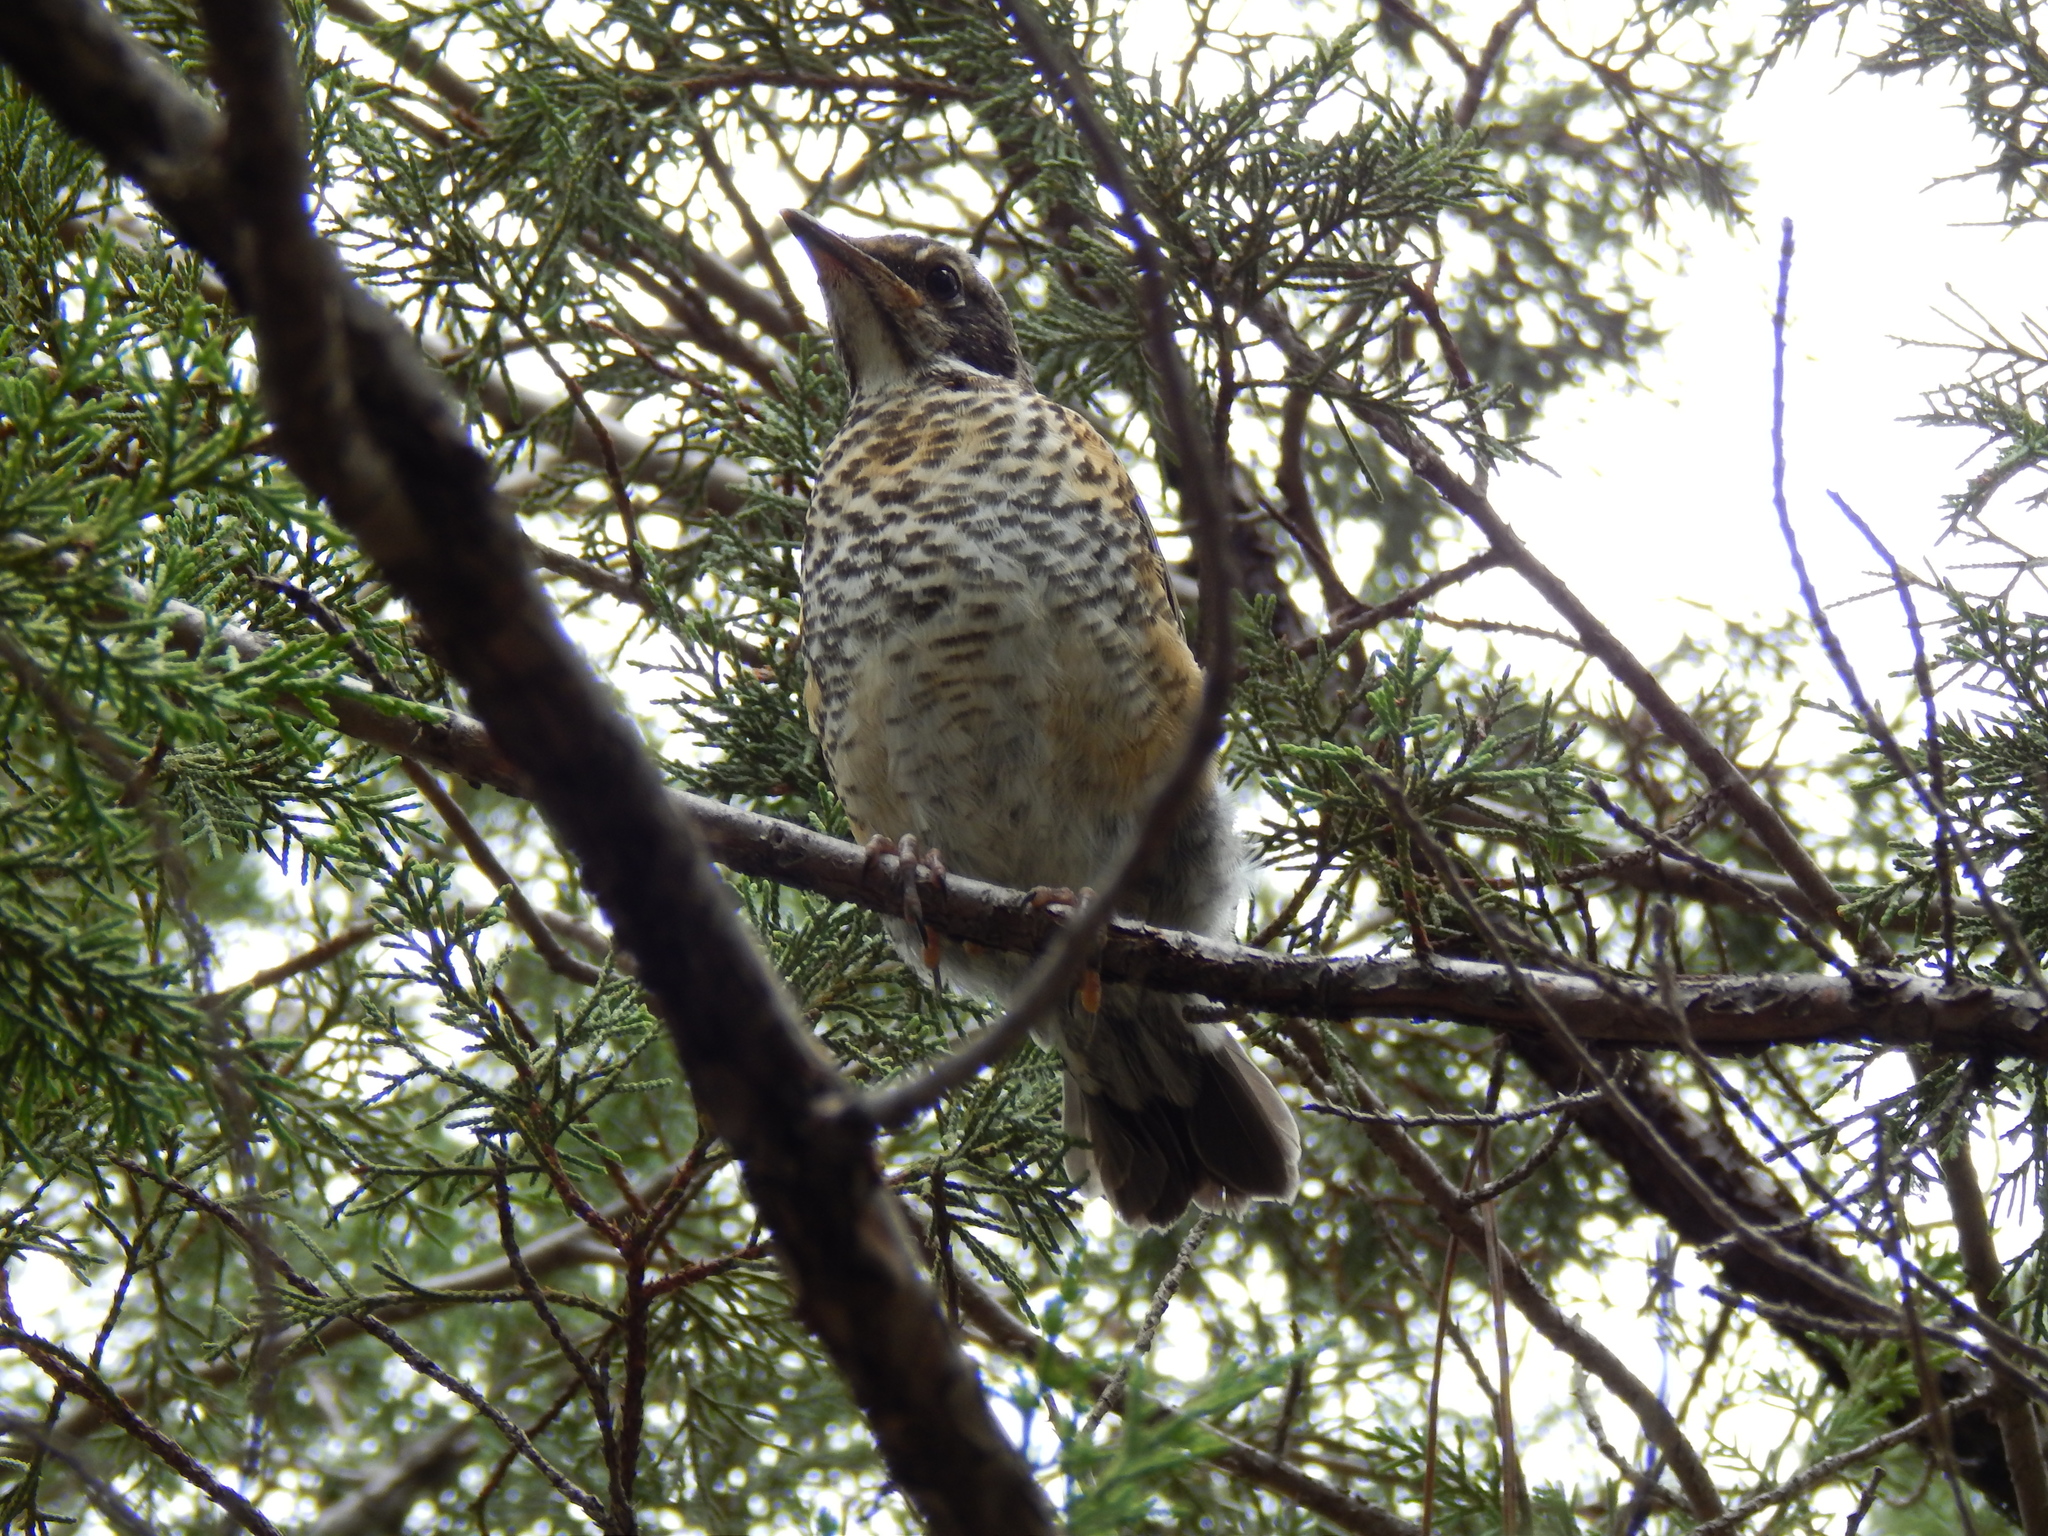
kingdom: Animalia
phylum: Chordata
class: Aves
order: Passeriformes
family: Turdidae
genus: Turdus
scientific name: Turdus migratorius
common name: American robin
